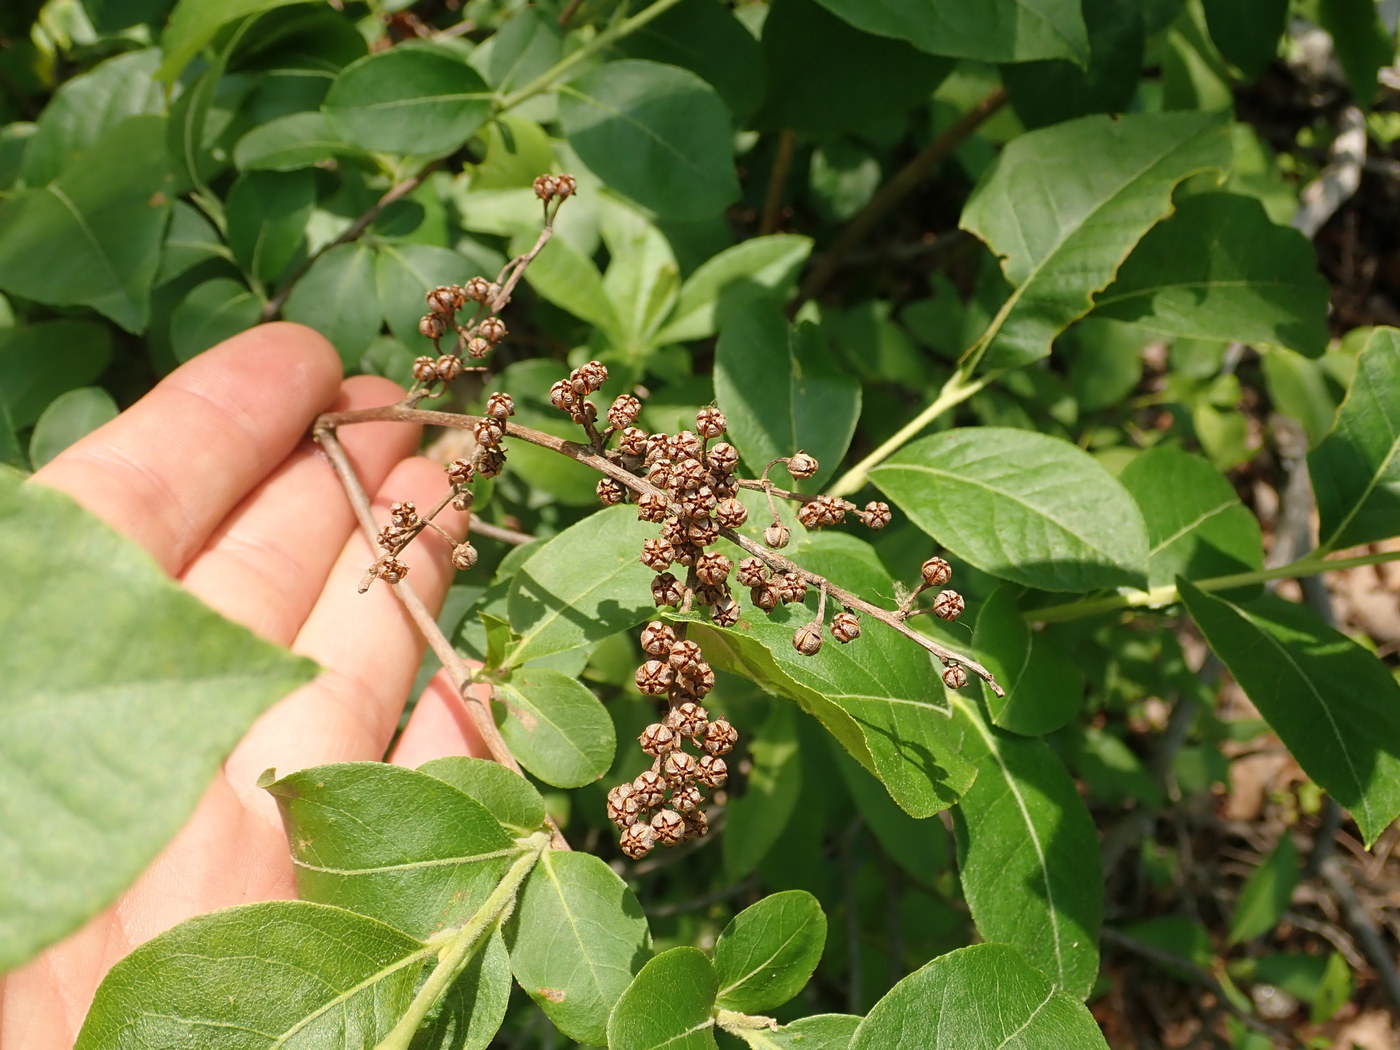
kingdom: Plantae
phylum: Tracheophyta
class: Magnoliopsida
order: Ericales
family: Ericaceae
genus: Lyonia
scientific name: Lyonia ligustrina
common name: Maleberry
